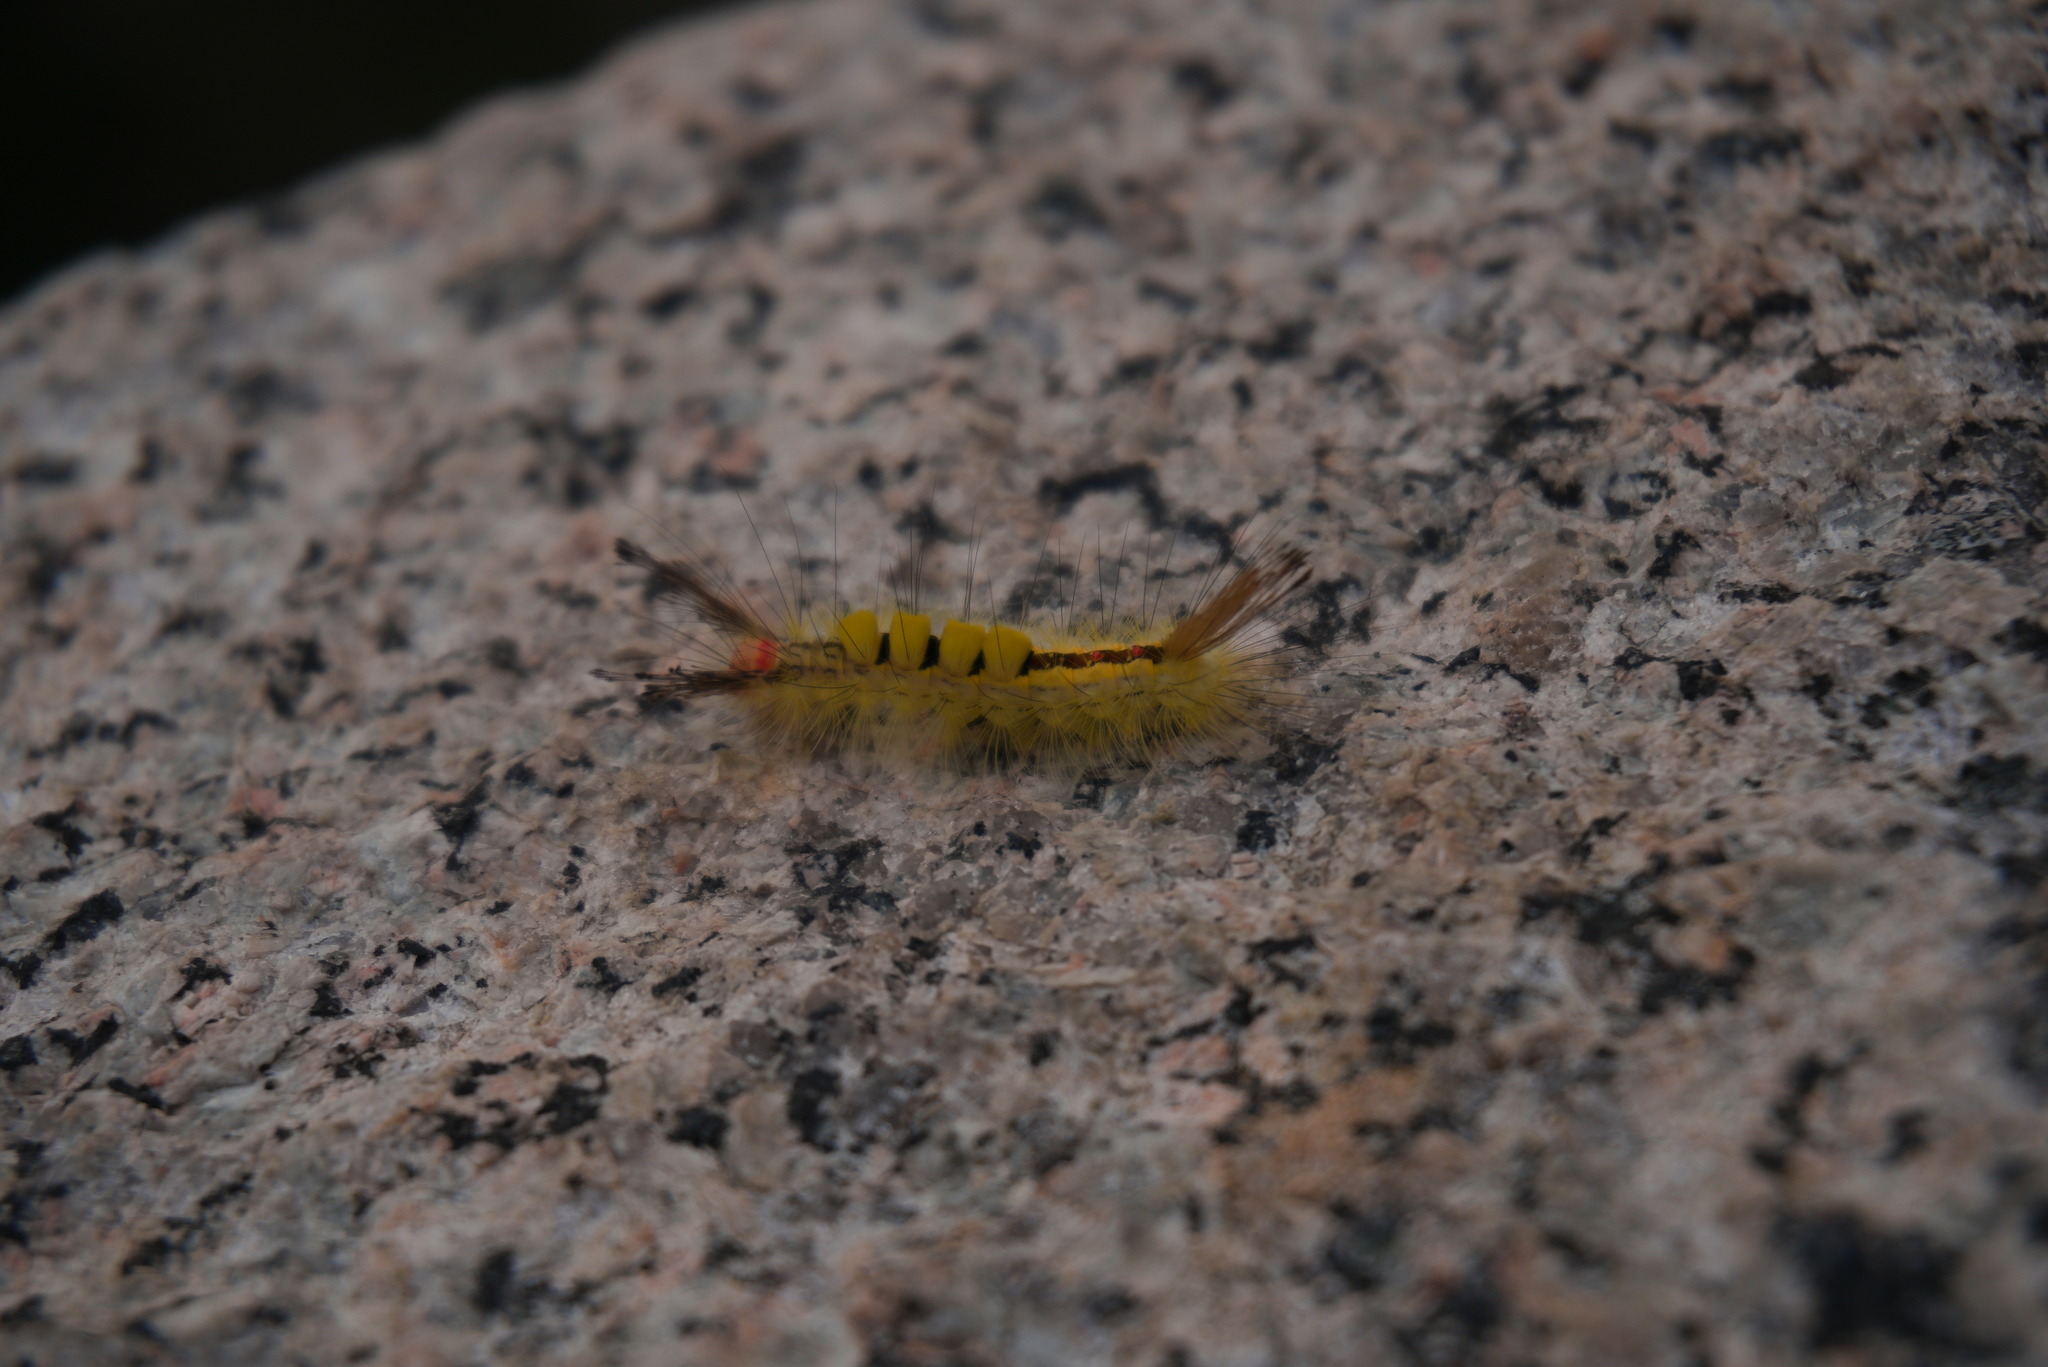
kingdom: Animalia
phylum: Arthropoda
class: Insecta
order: Lepidoptera
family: Erebidae
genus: Orgyia
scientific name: Orgyia leucostigma
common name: White-marked tussock moth
